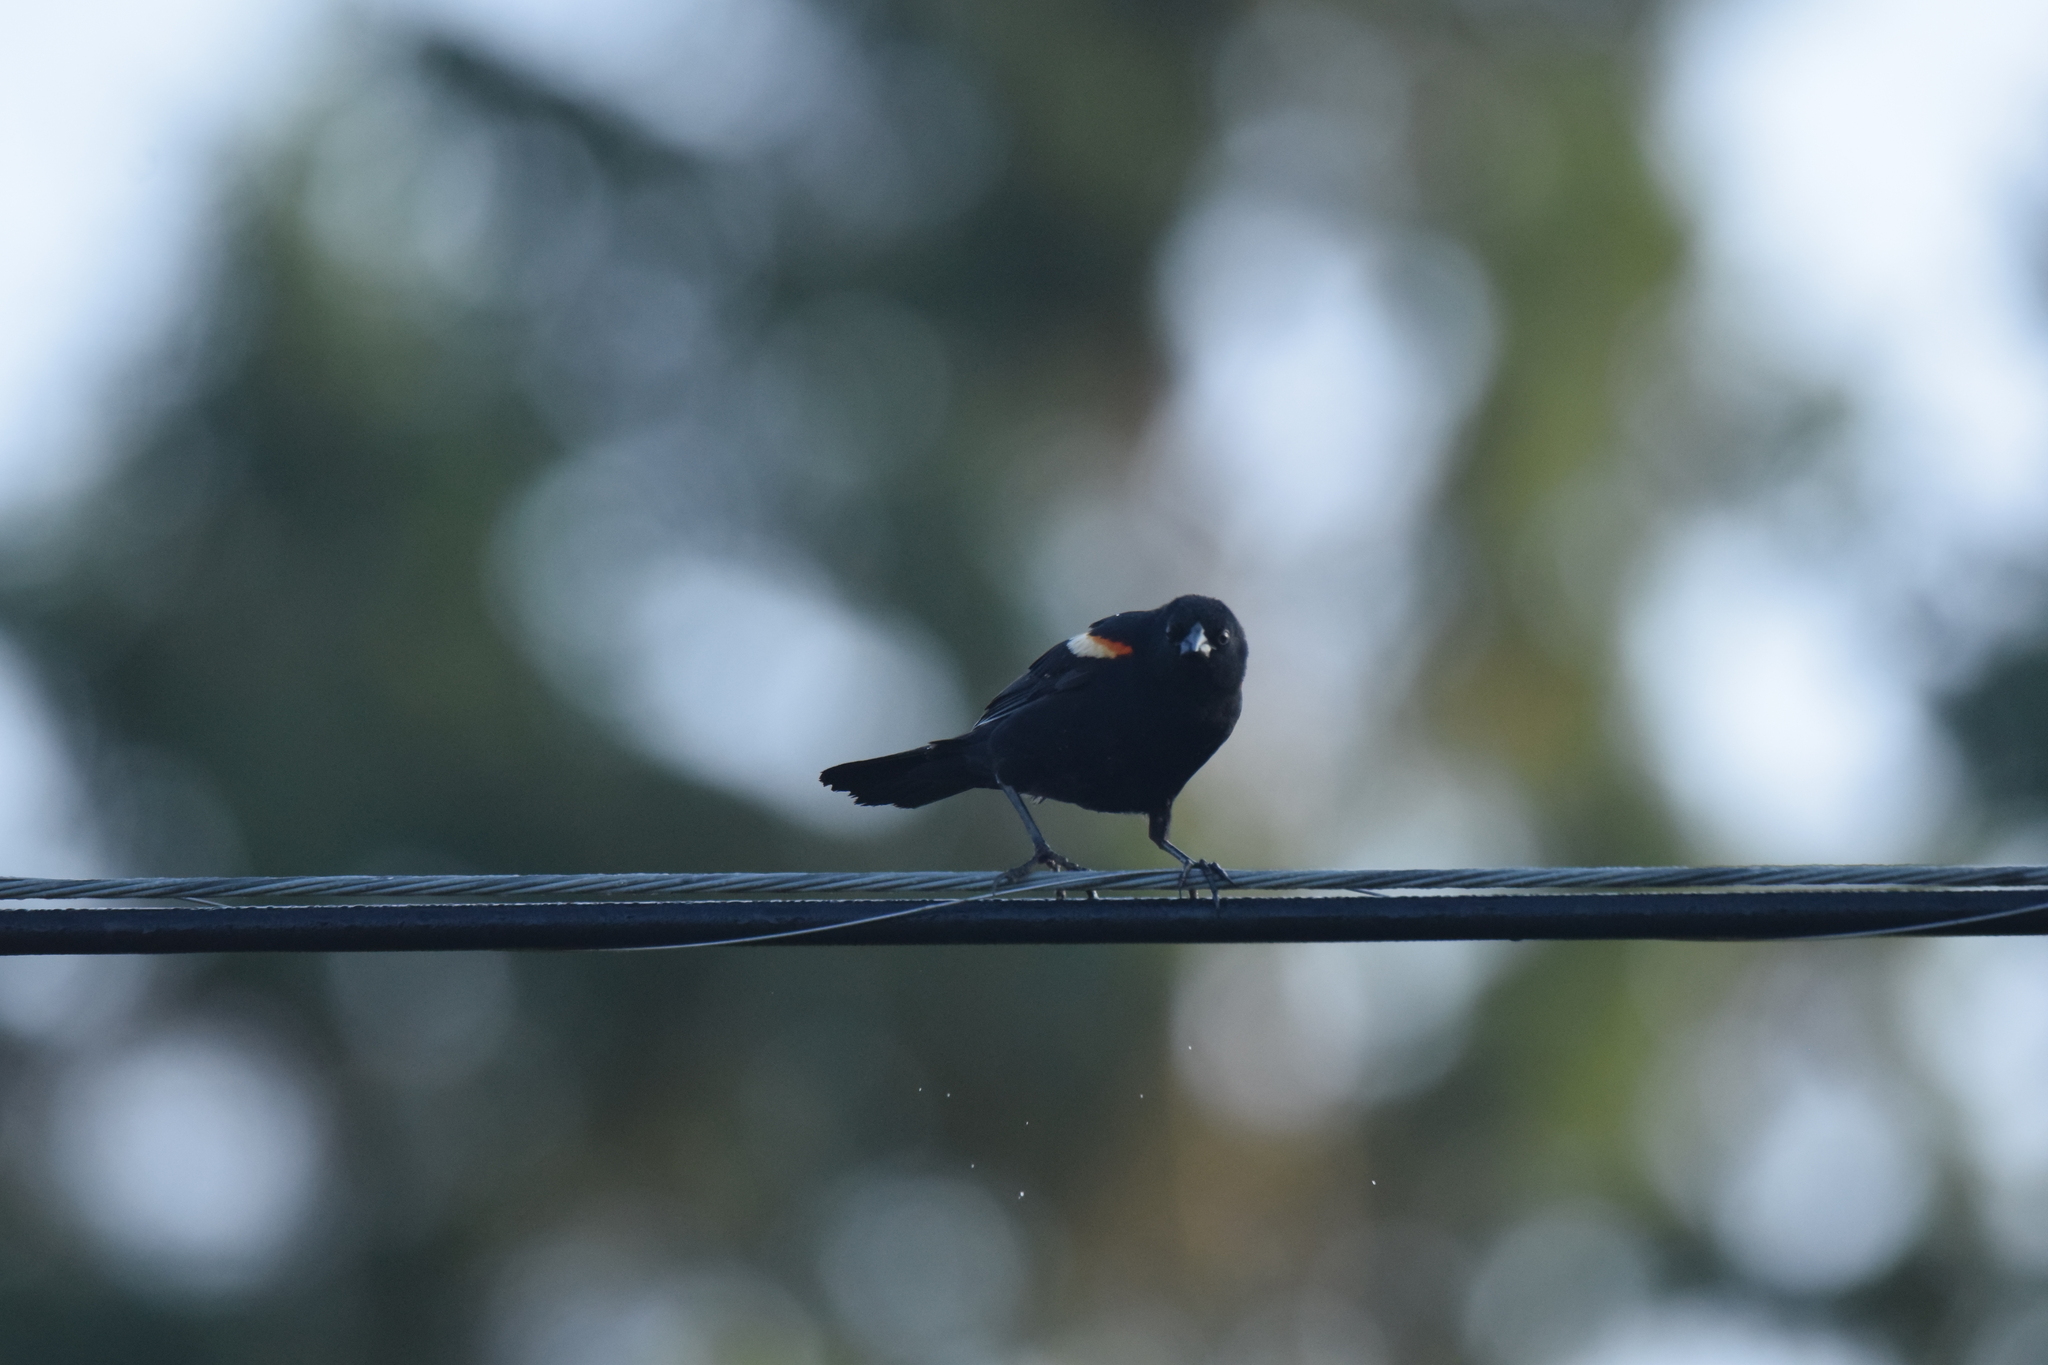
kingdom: Animalia
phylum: Chordata
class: Aves
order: Passeriformes
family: Icteridae
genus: Agelaius
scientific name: Agelaius phoeniceus
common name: Red-winged blackbird
